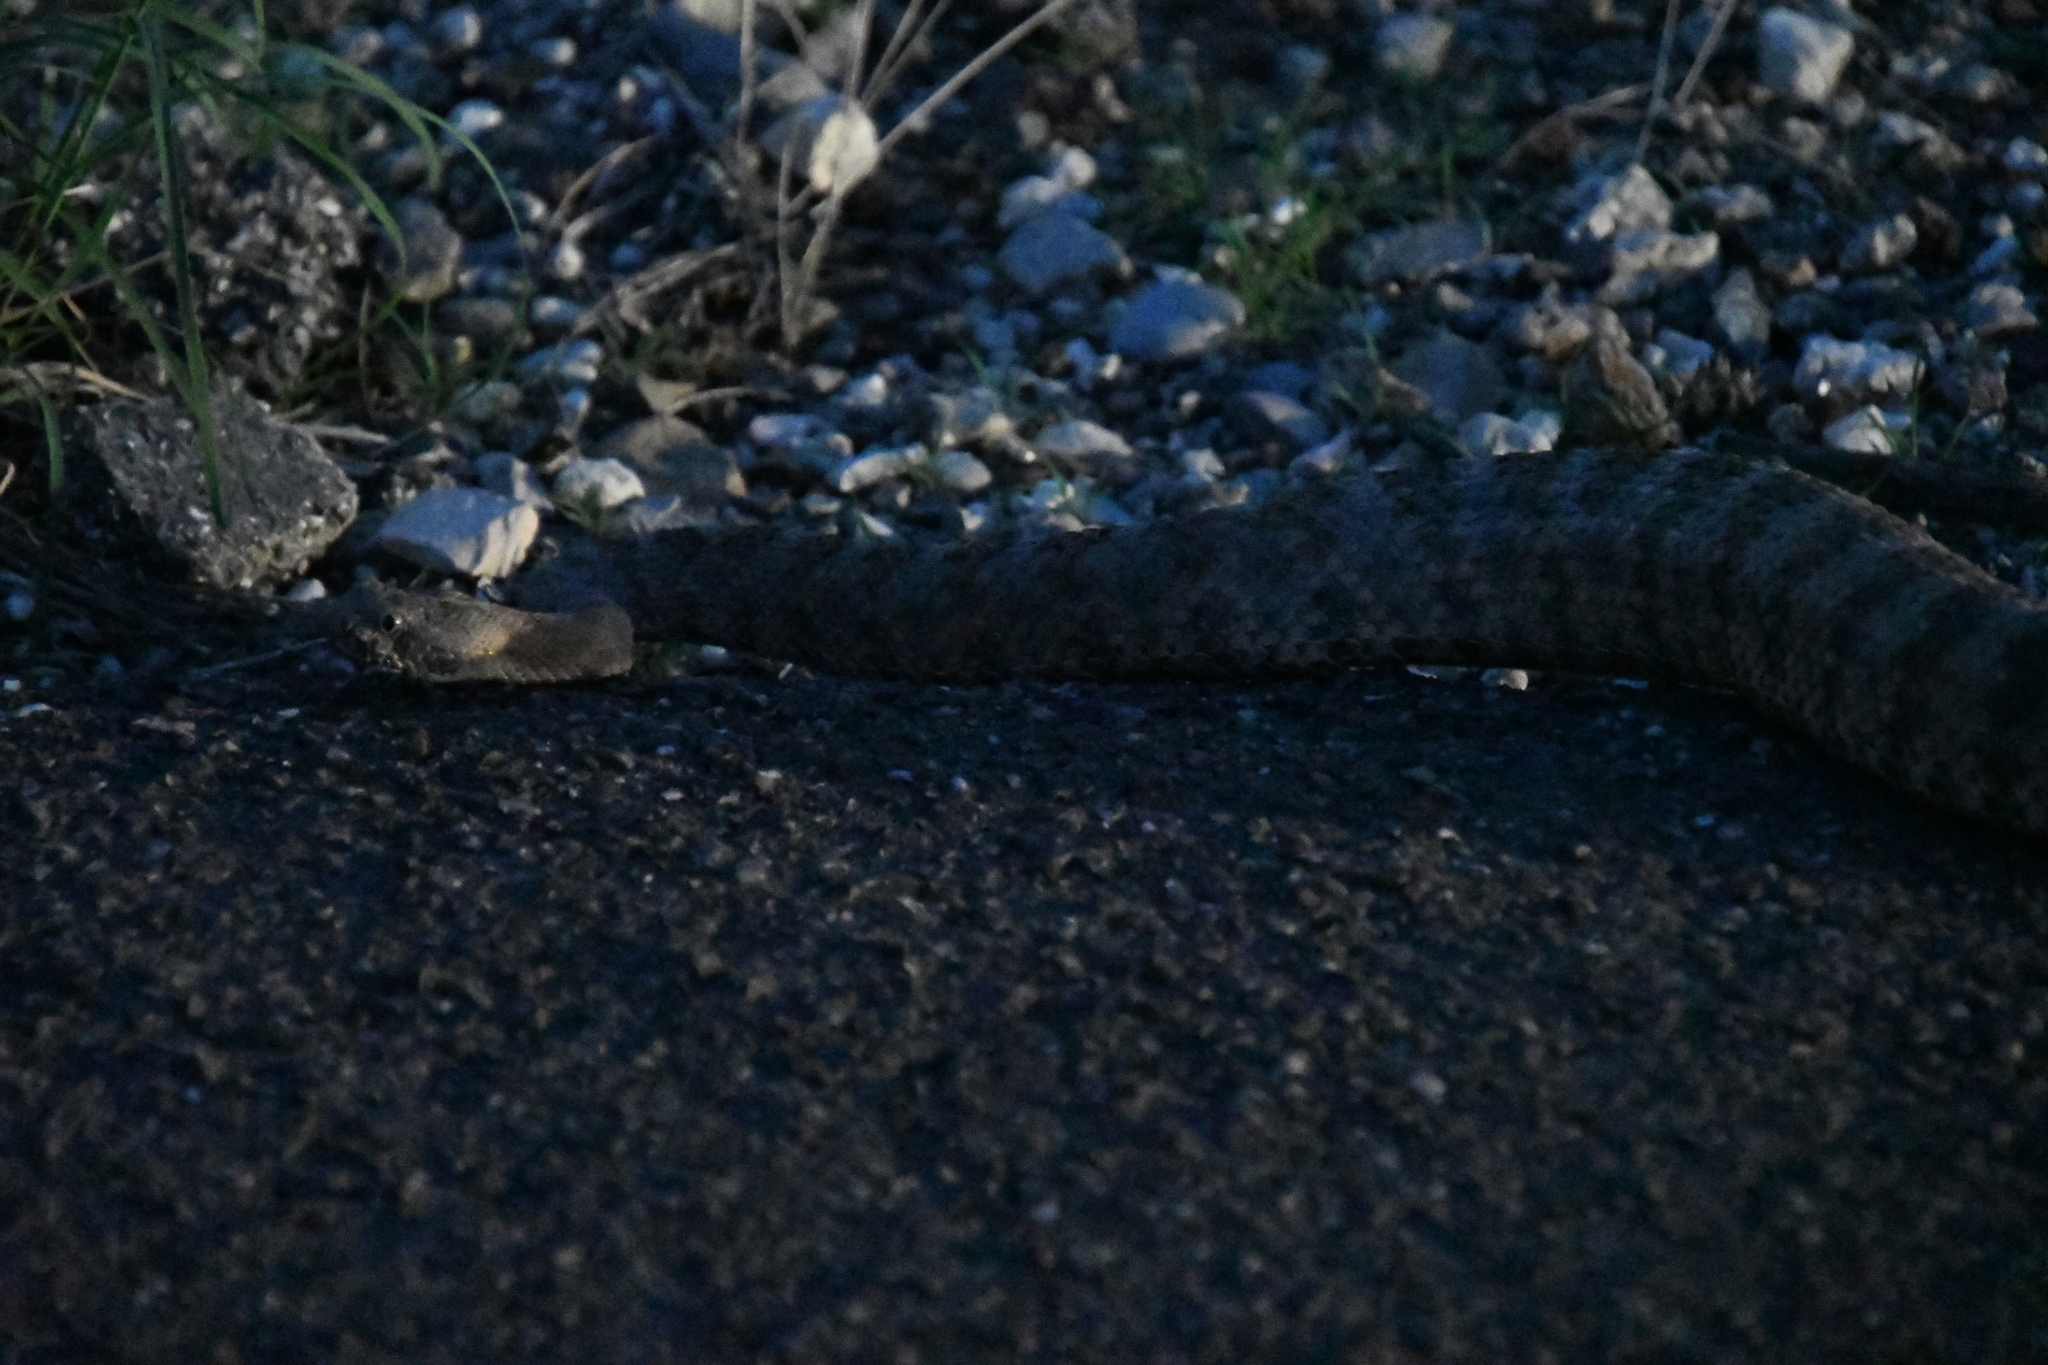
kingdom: Animalia
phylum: Chordata
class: Squamata
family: Viperidae
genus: Crotalus
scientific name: Crotalus tigris
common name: Tiger rattlesnake
